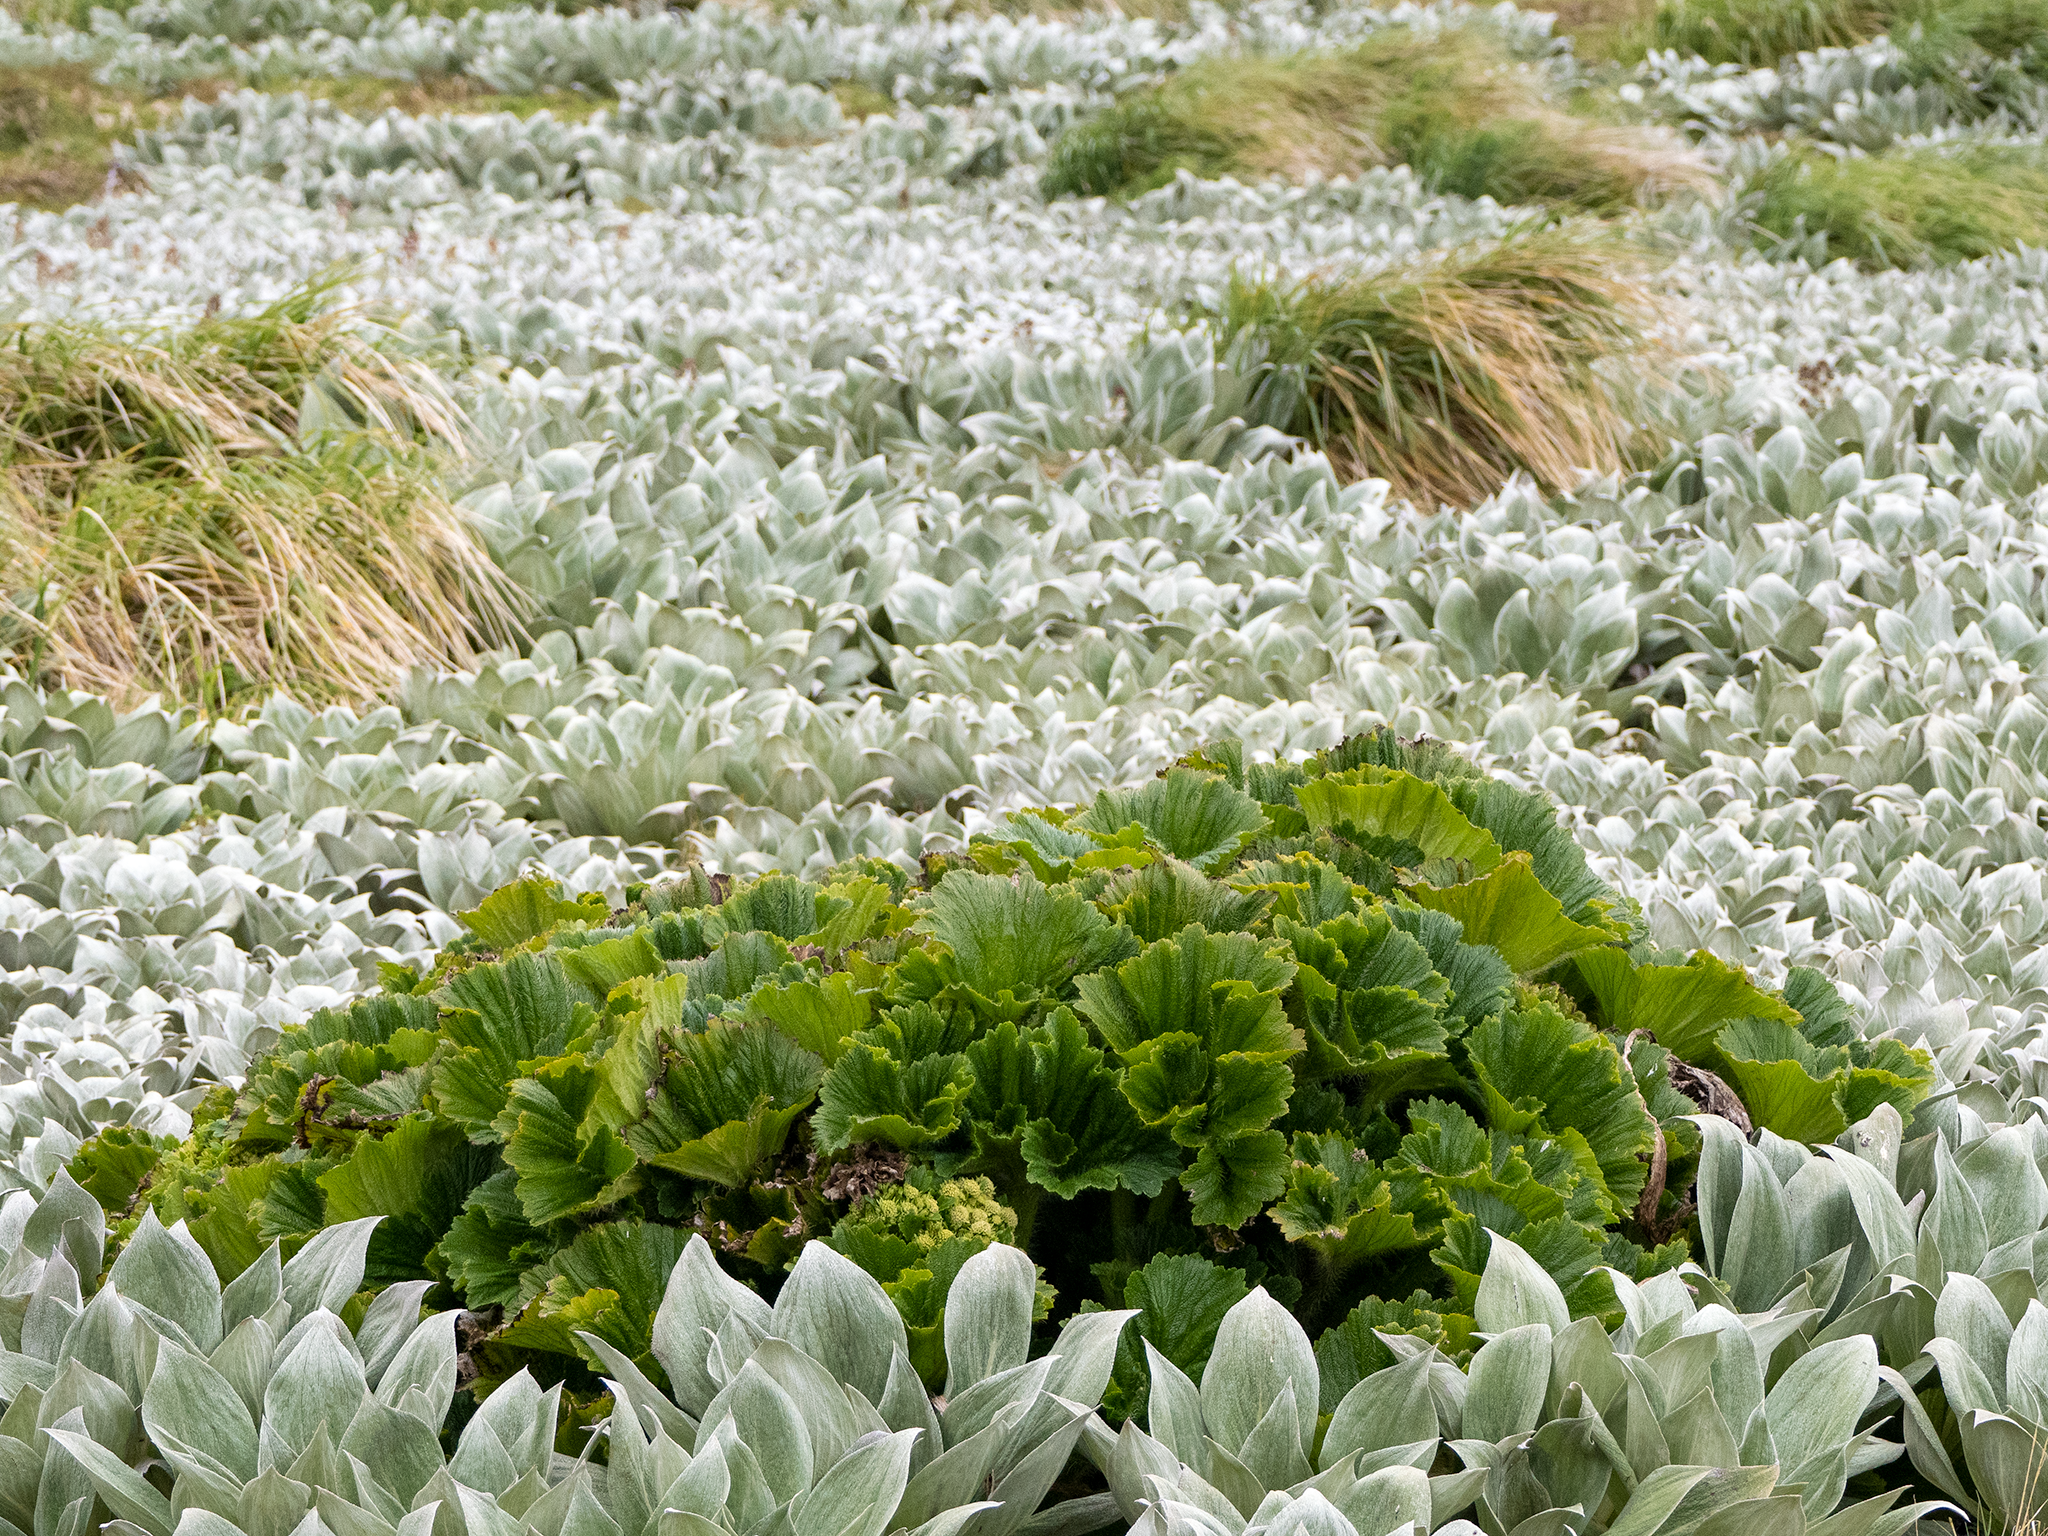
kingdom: Plantae
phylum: Tracheophyta
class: Magnoliopsida
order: Apiales
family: Apiaceae
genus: Azorella
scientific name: Azorella polaris
